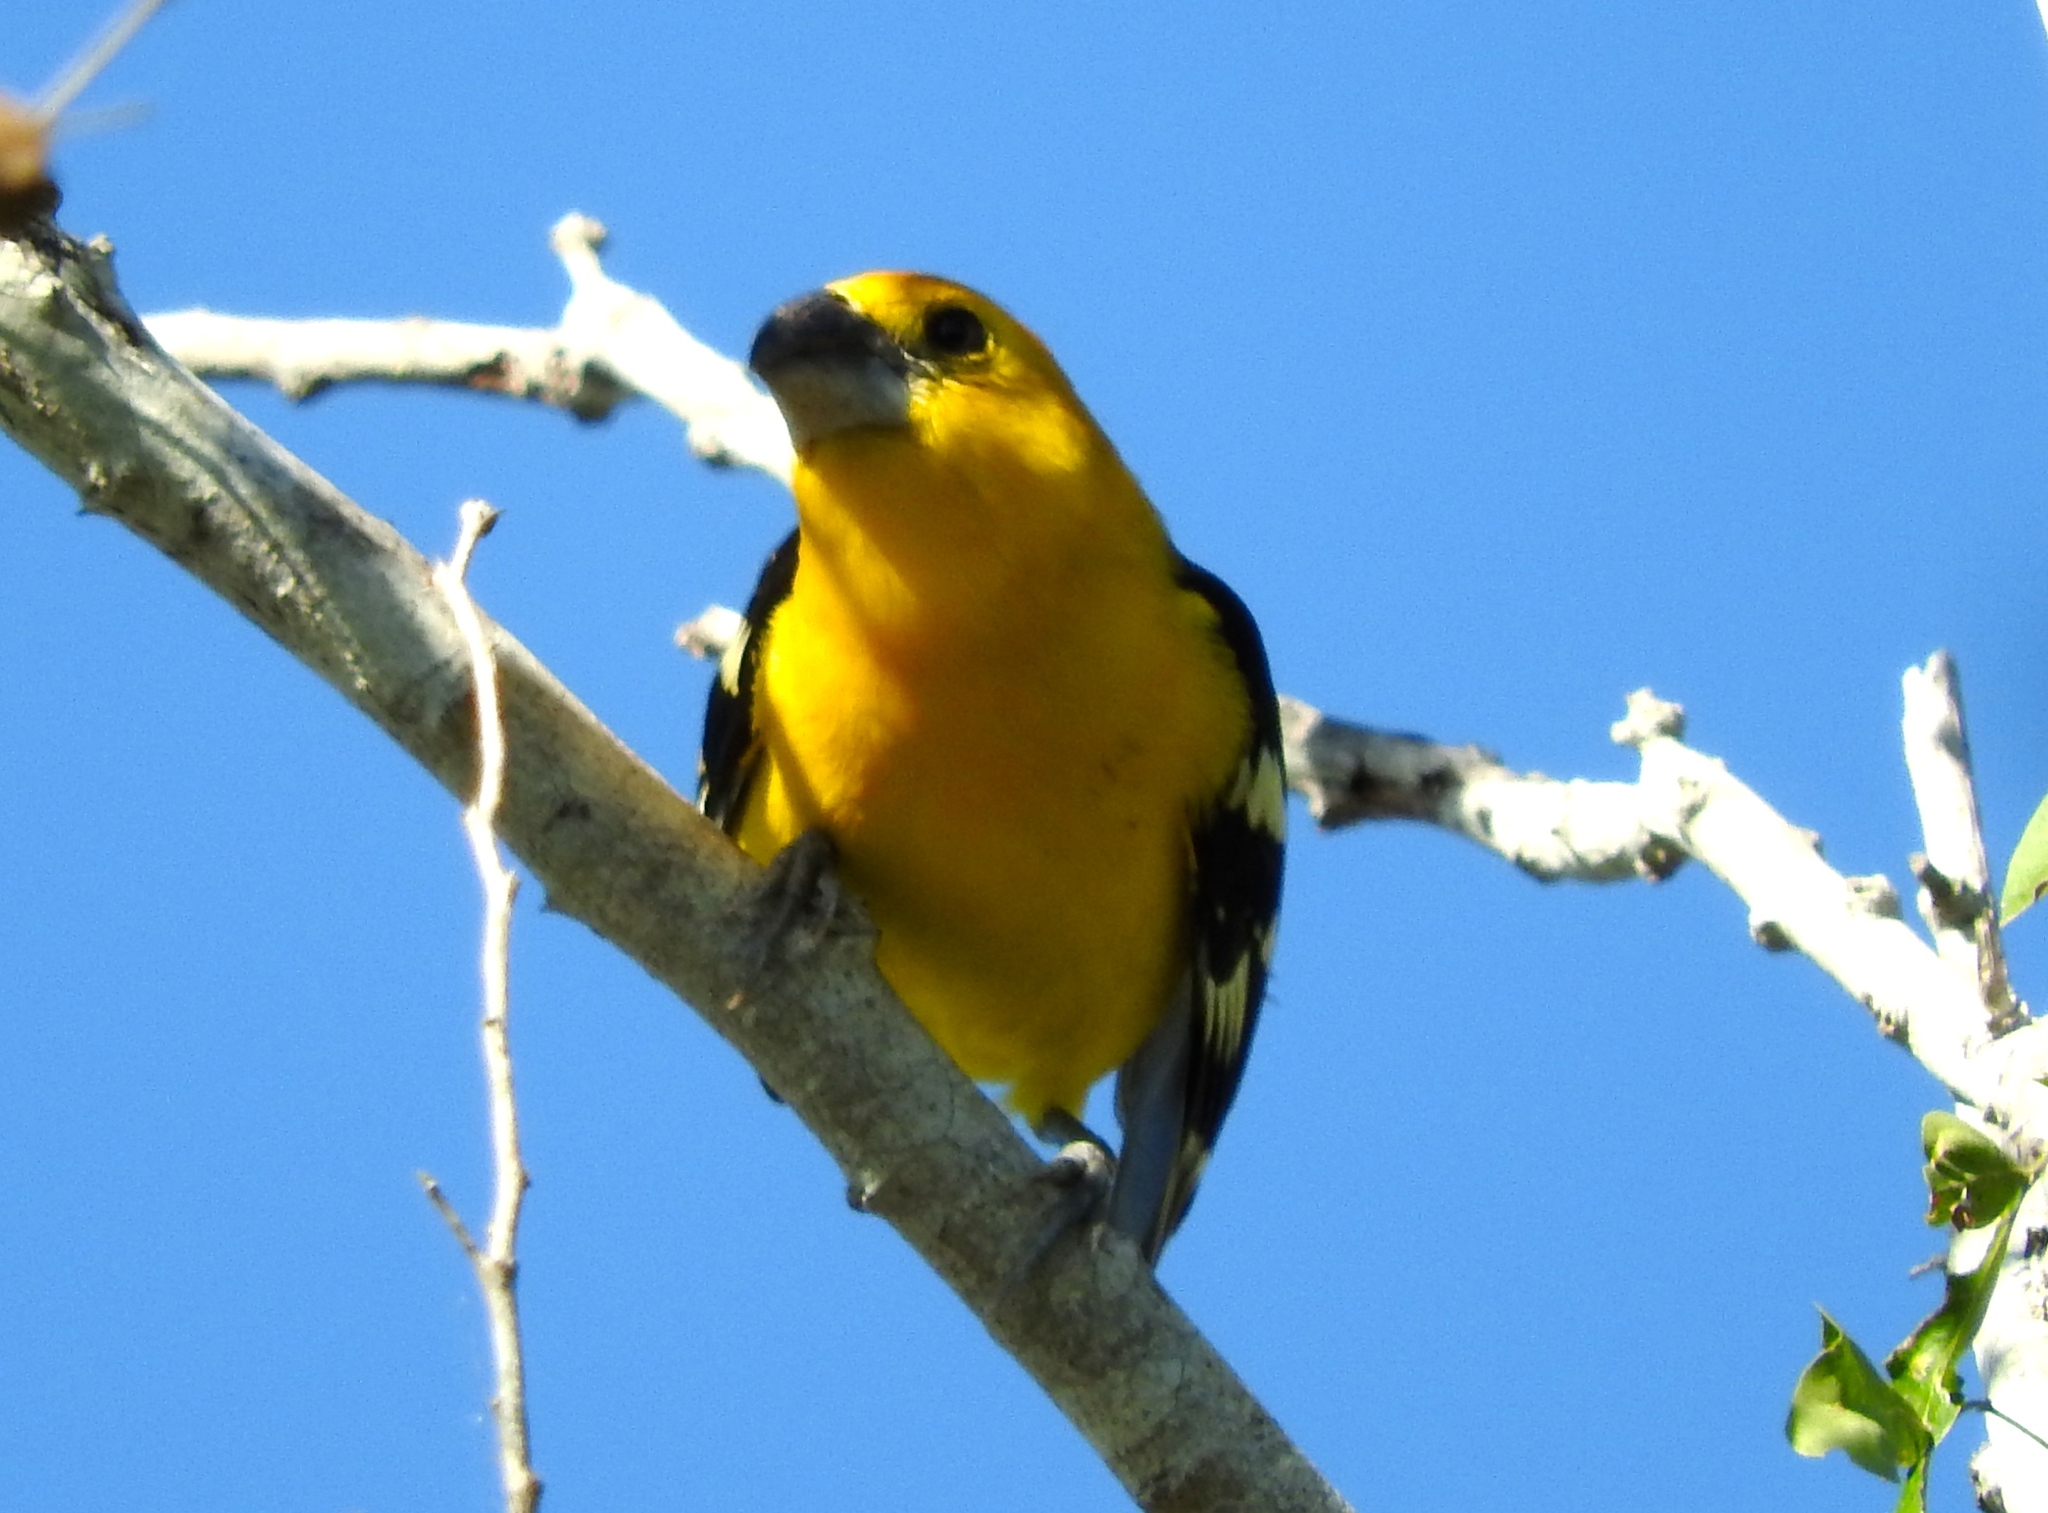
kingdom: Animalia
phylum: Chordata
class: Aves
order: Passeriformes
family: Cardinalidae
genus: Pheucticus
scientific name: Pheucticus chrysopeplus
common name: Yellow grosbeak
